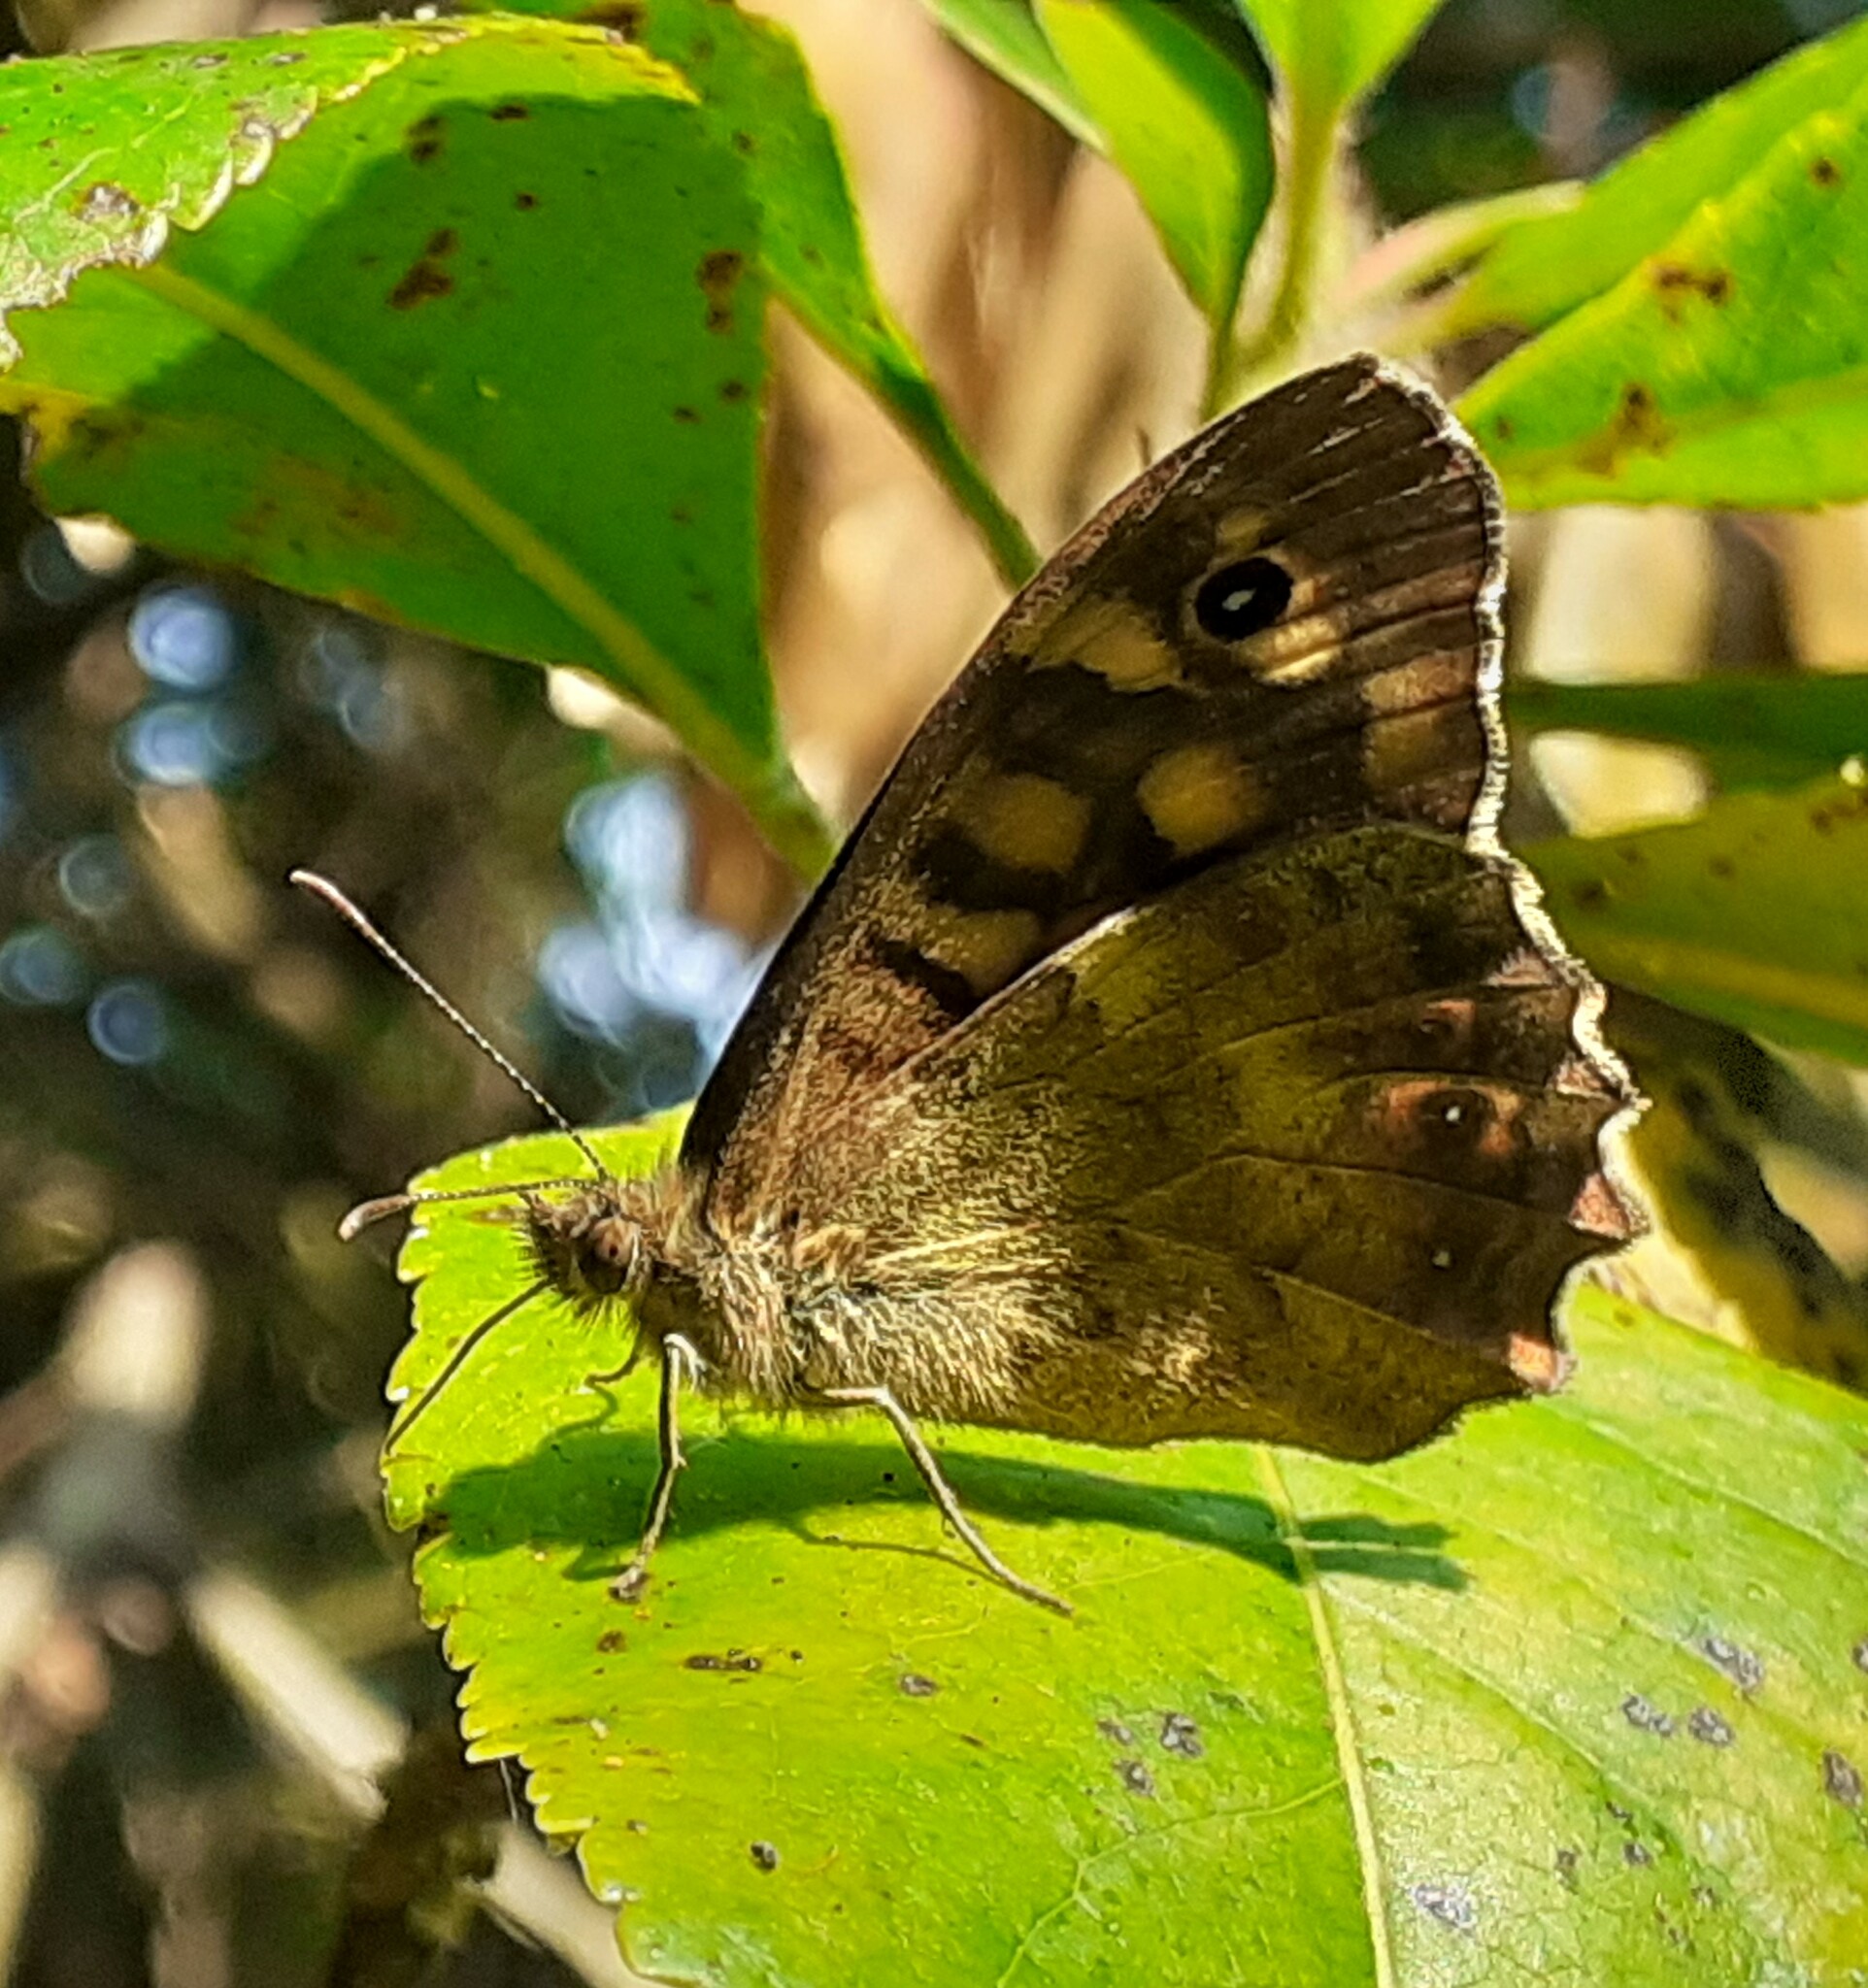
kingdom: Animalia
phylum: Arthropoda
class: Insecta
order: Lepidoptera
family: Nymphalidae
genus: Pararge
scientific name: Pararge aegeria
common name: Speckled wood
